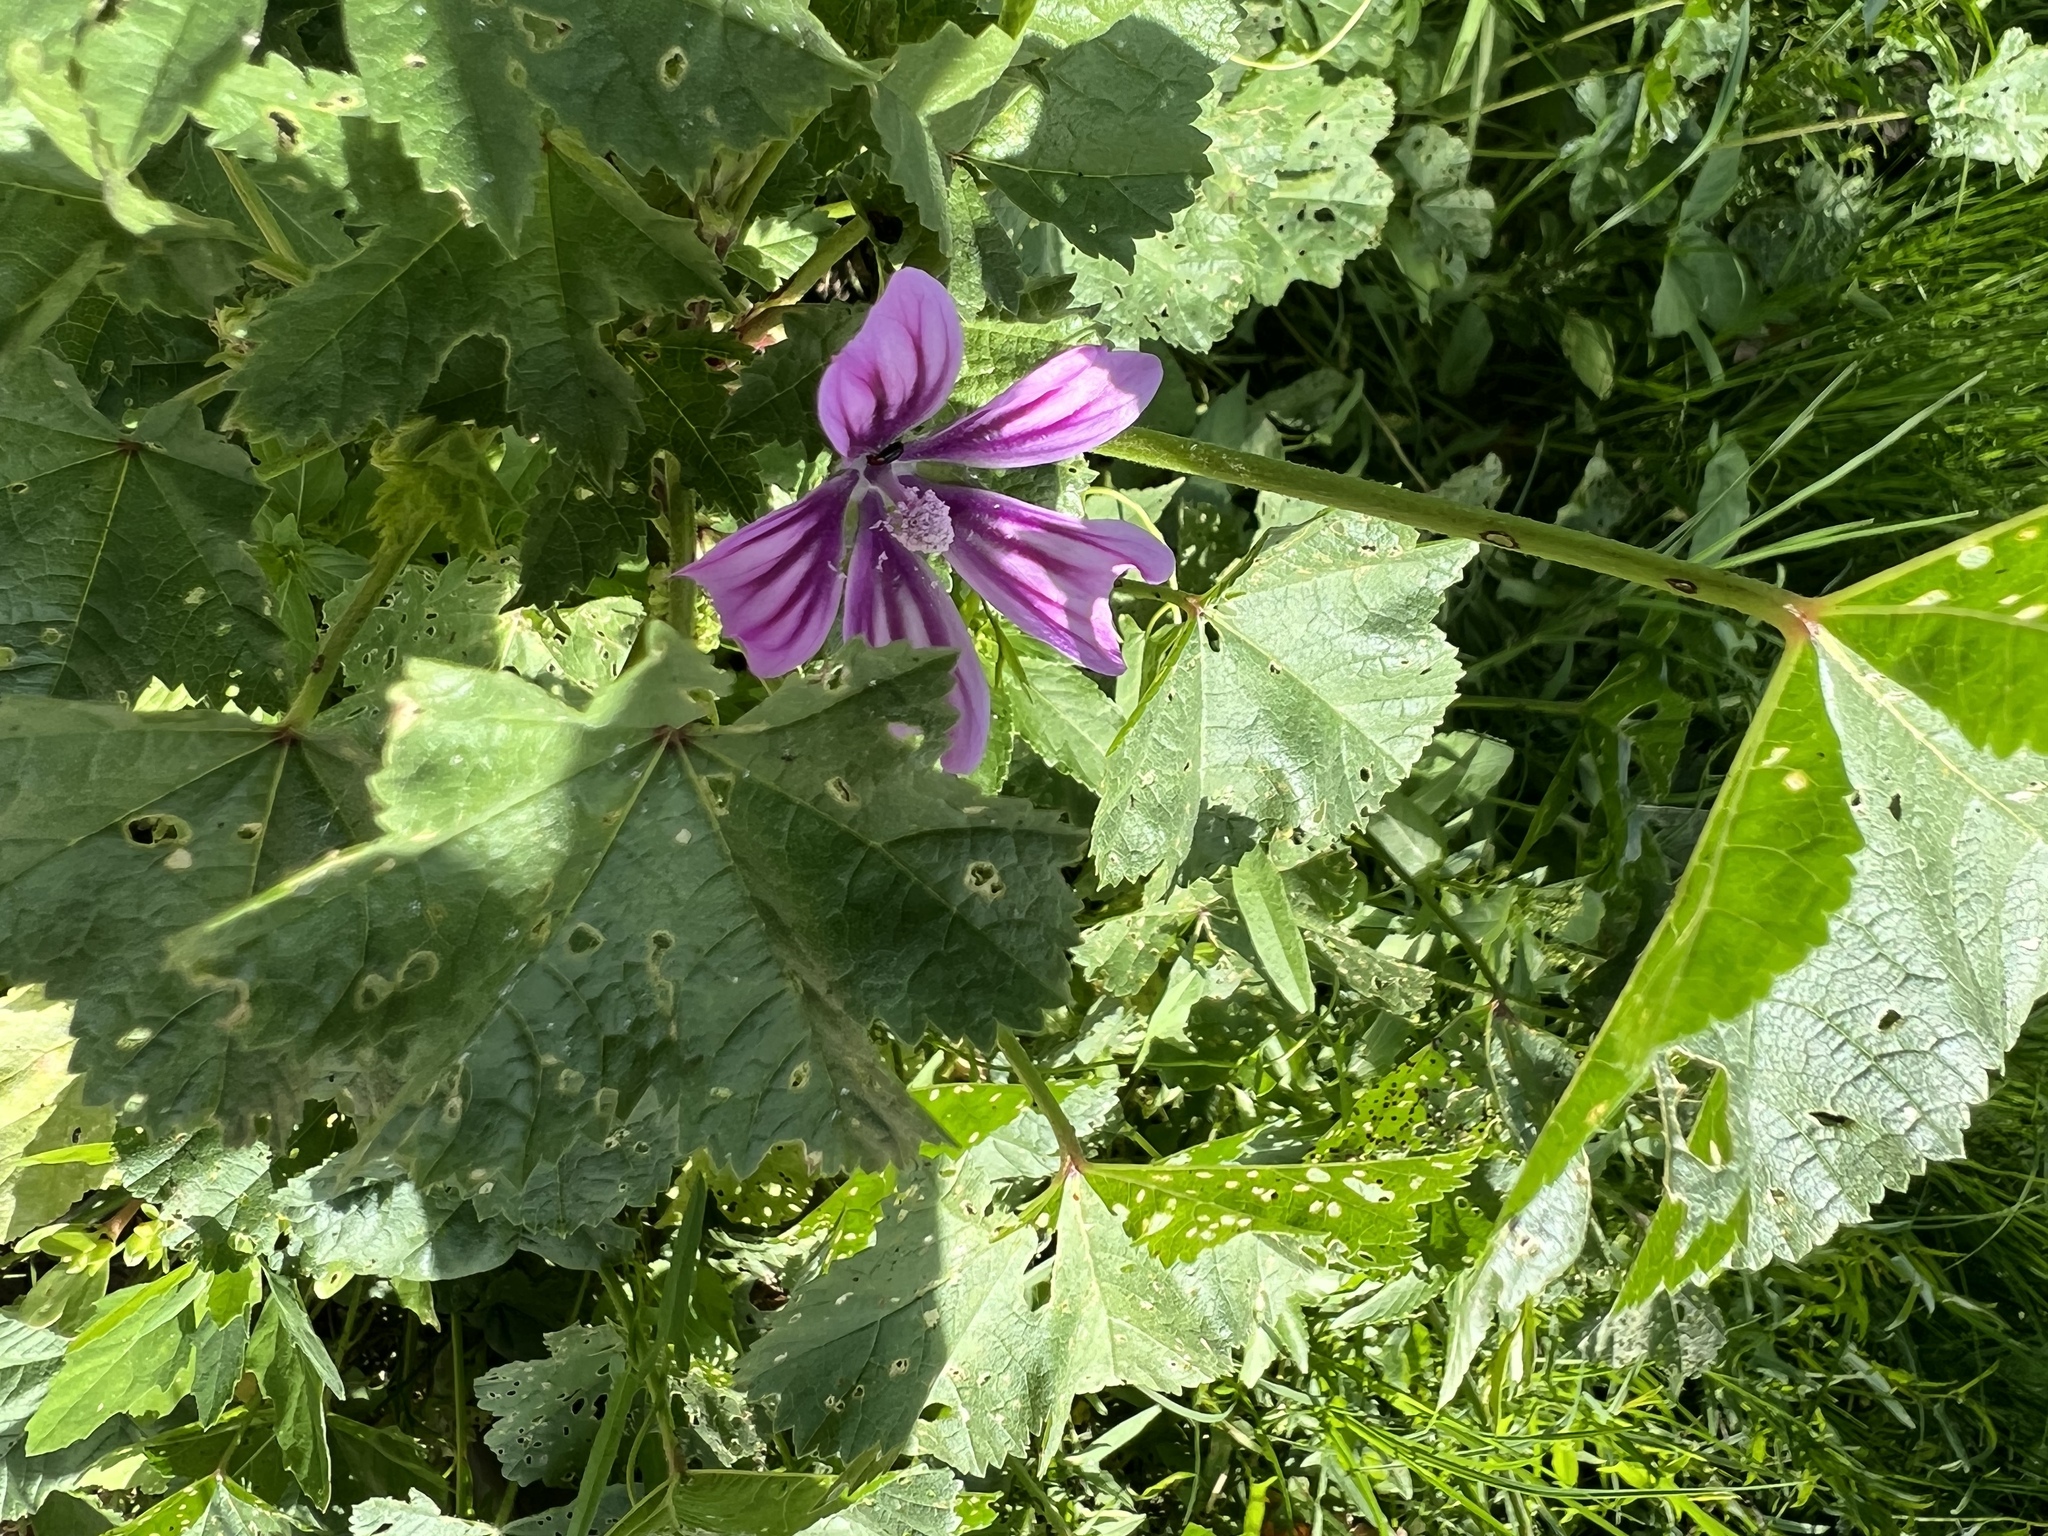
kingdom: Plantae
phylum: Tracheophyta
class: Magnoliopsida
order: Malvales
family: Malvaceae
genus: Malva
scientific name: Malva sylvestris
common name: Common mallow
